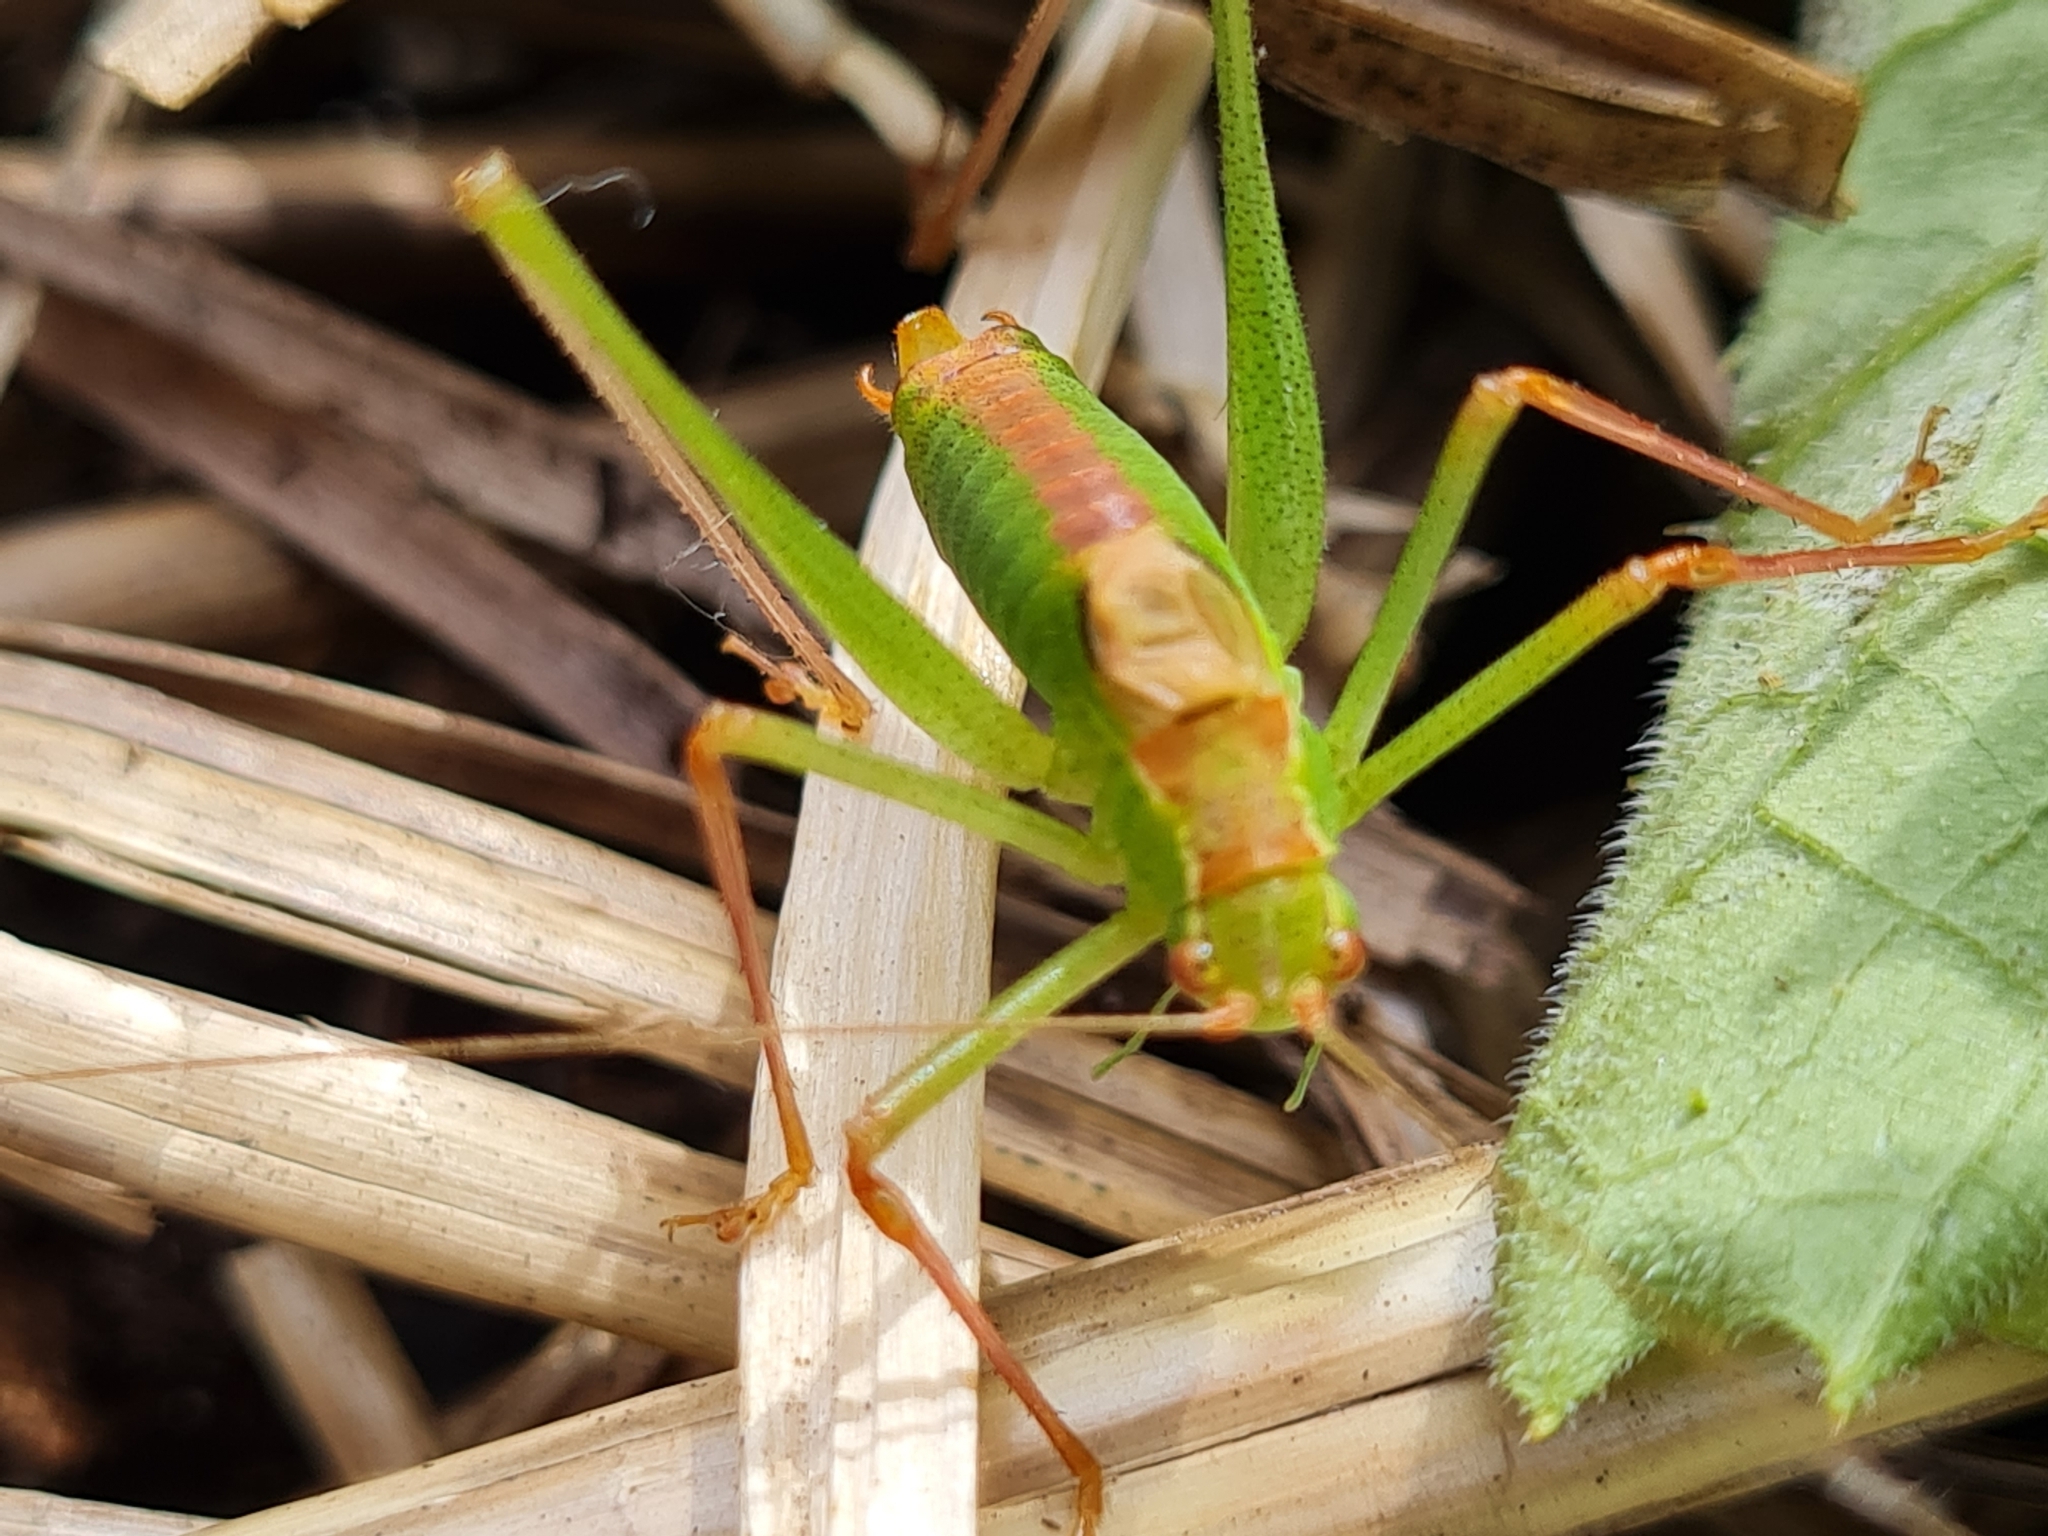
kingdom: Animalia
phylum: Arthropoda
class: Insecta
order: Orthoptera
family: Tettigoniidae
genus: Leptophyes
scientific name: Leptophyes punctatissima
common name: Speckled bush-cricket
